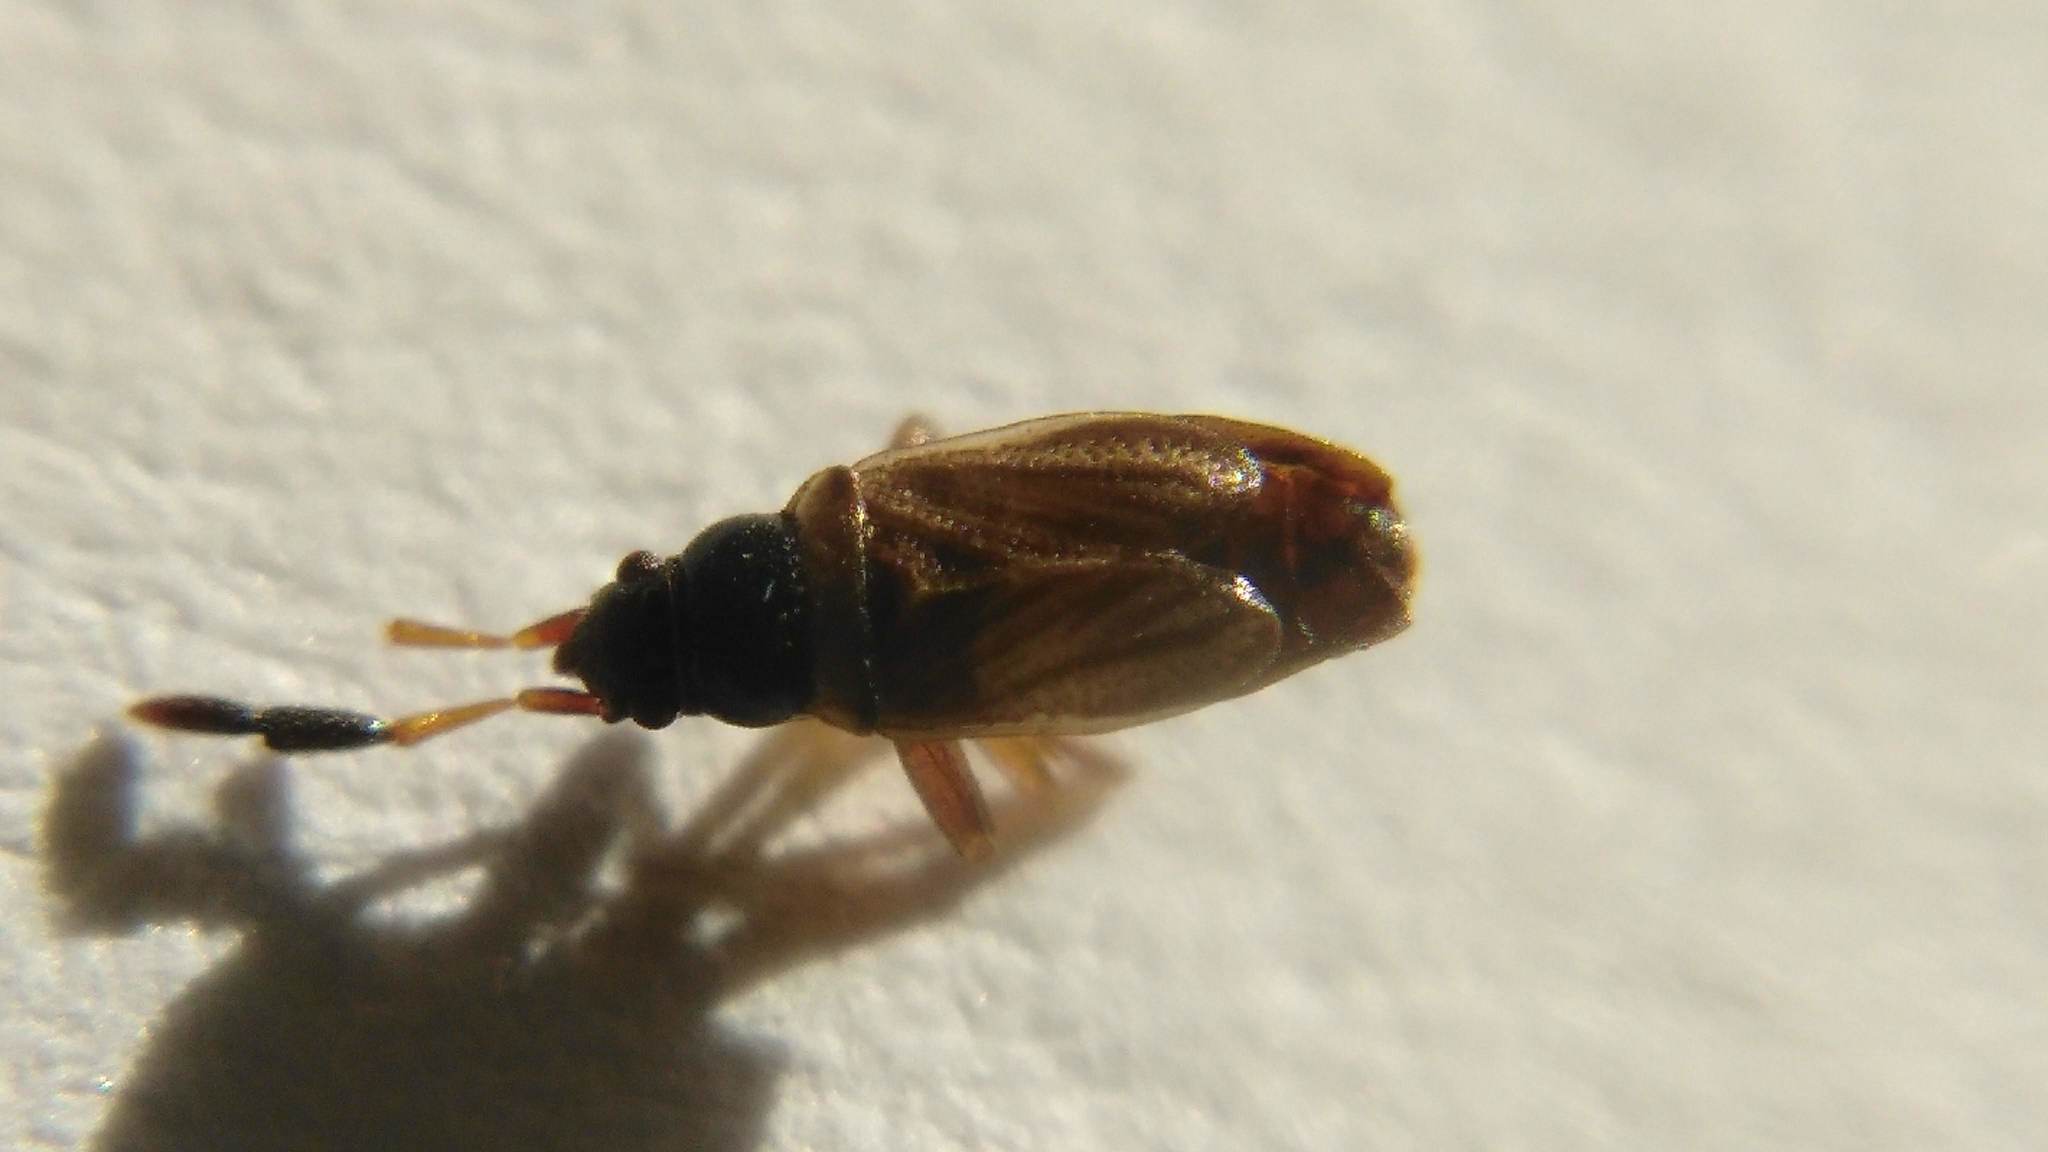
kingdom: Animalia
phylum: Arthropoda
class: Insecta
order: Hemiptera
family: Rhyparochromidae
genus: Ptochiomera
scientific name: Ptochiomera nodosa
